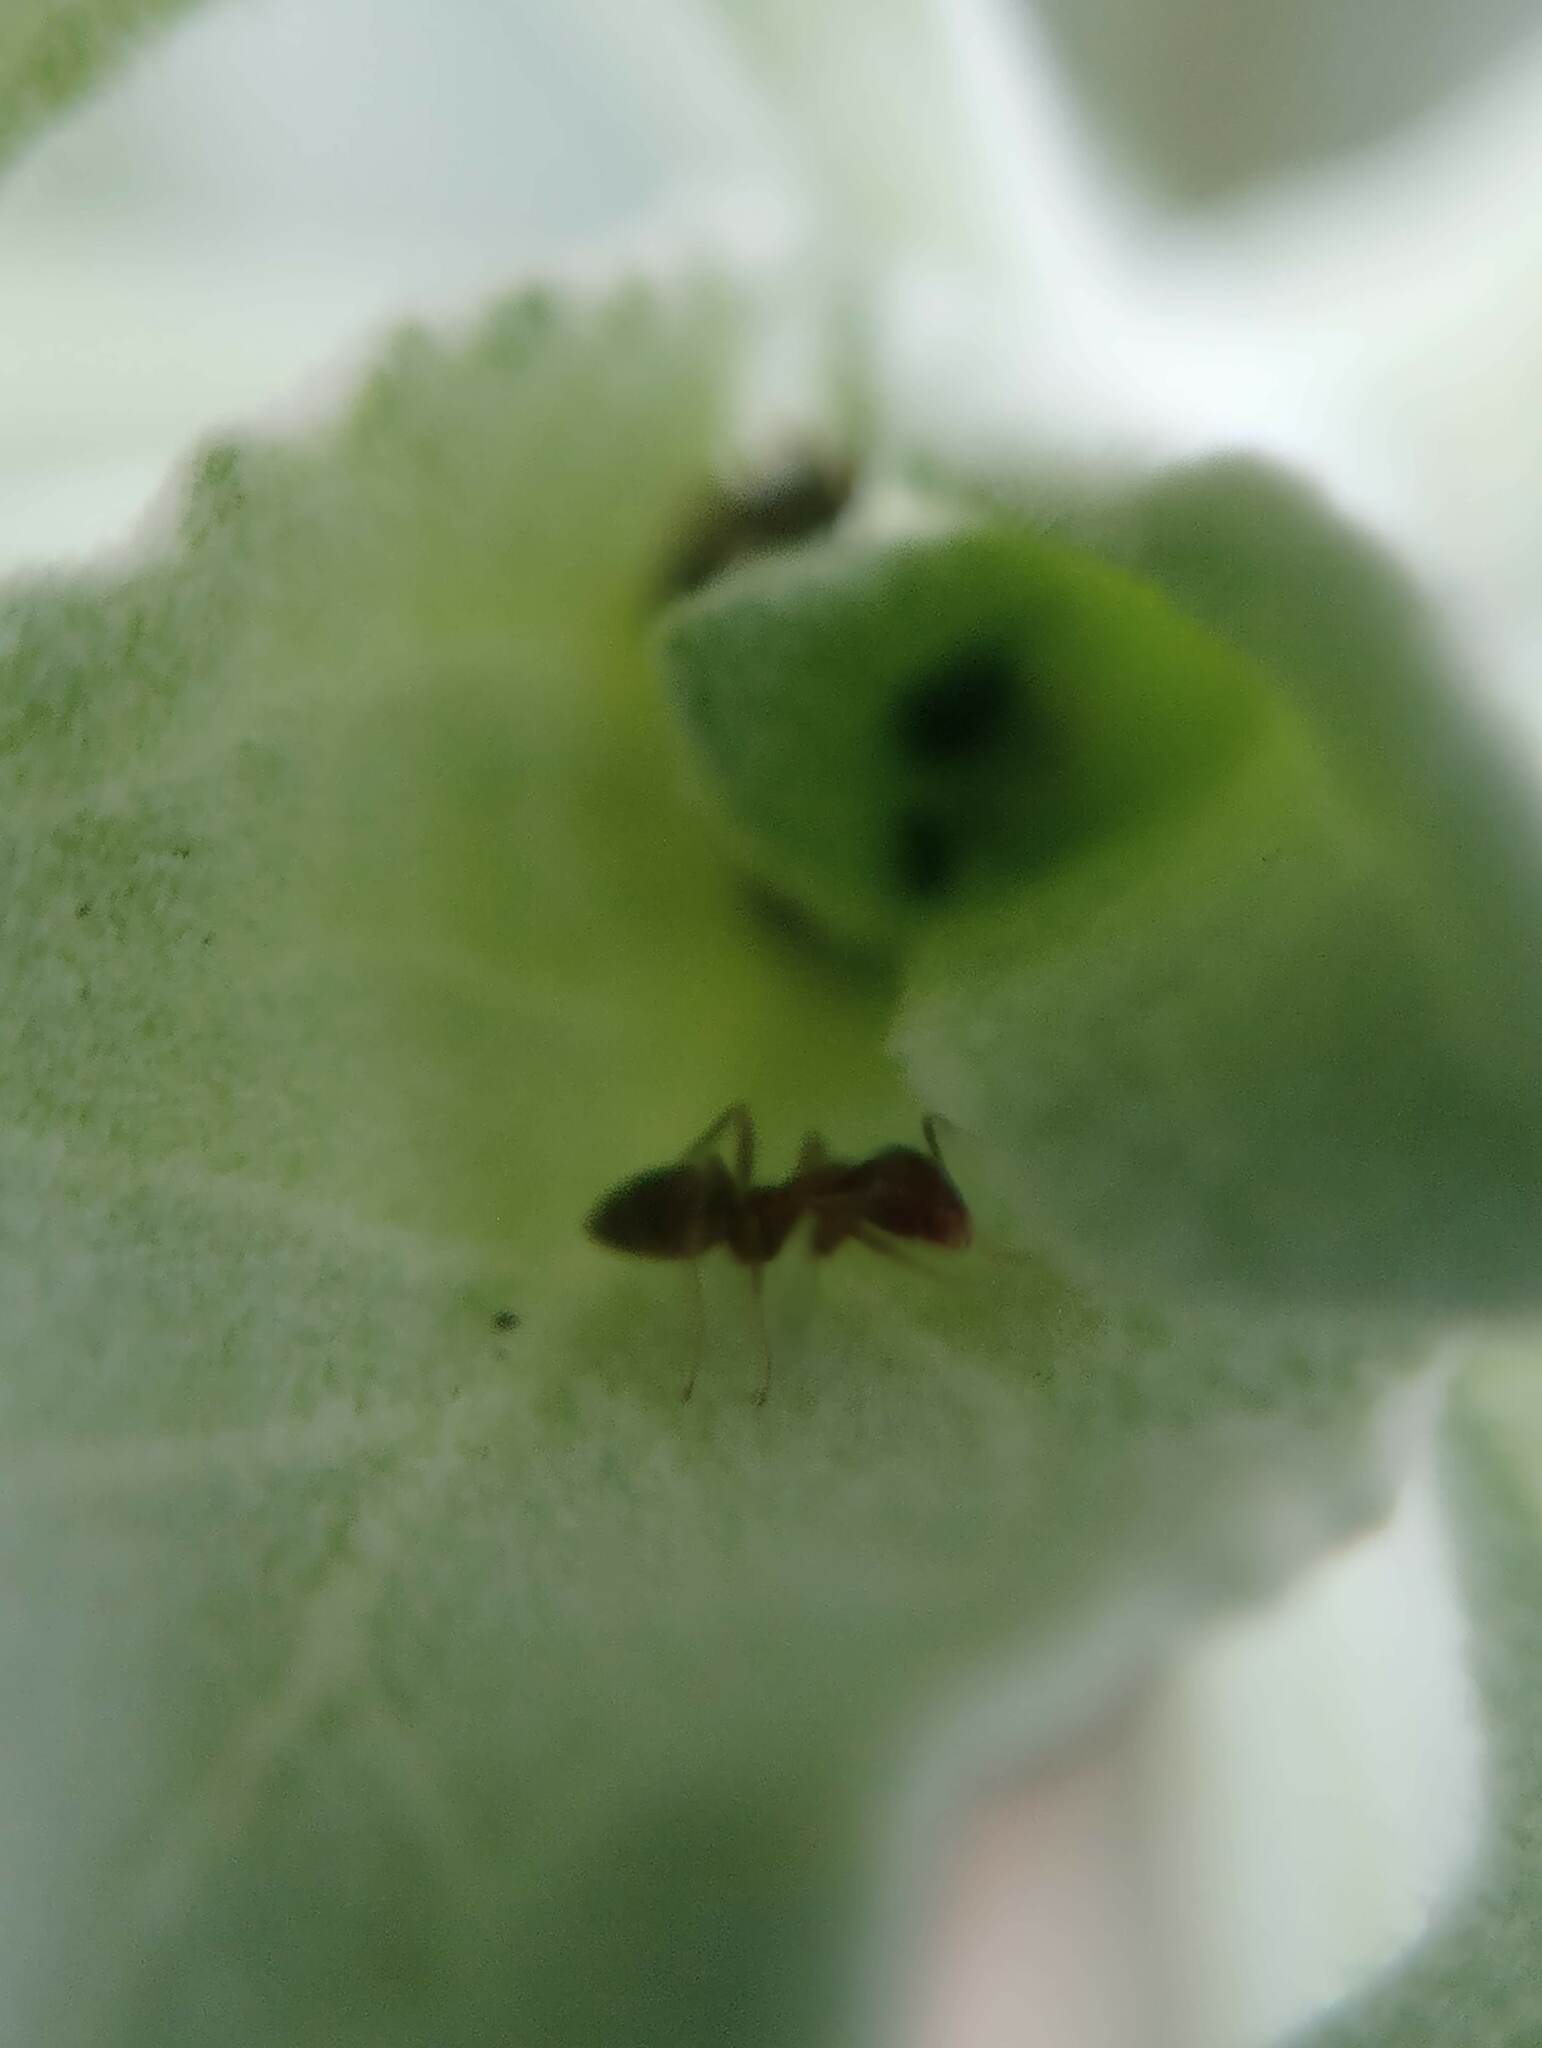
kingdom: Animalia
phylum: Arthropoda
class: Insecta
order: Hymenoptera
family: Formicidae
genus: Linepithema
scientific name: Linepithema humile
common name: Argentine ant
